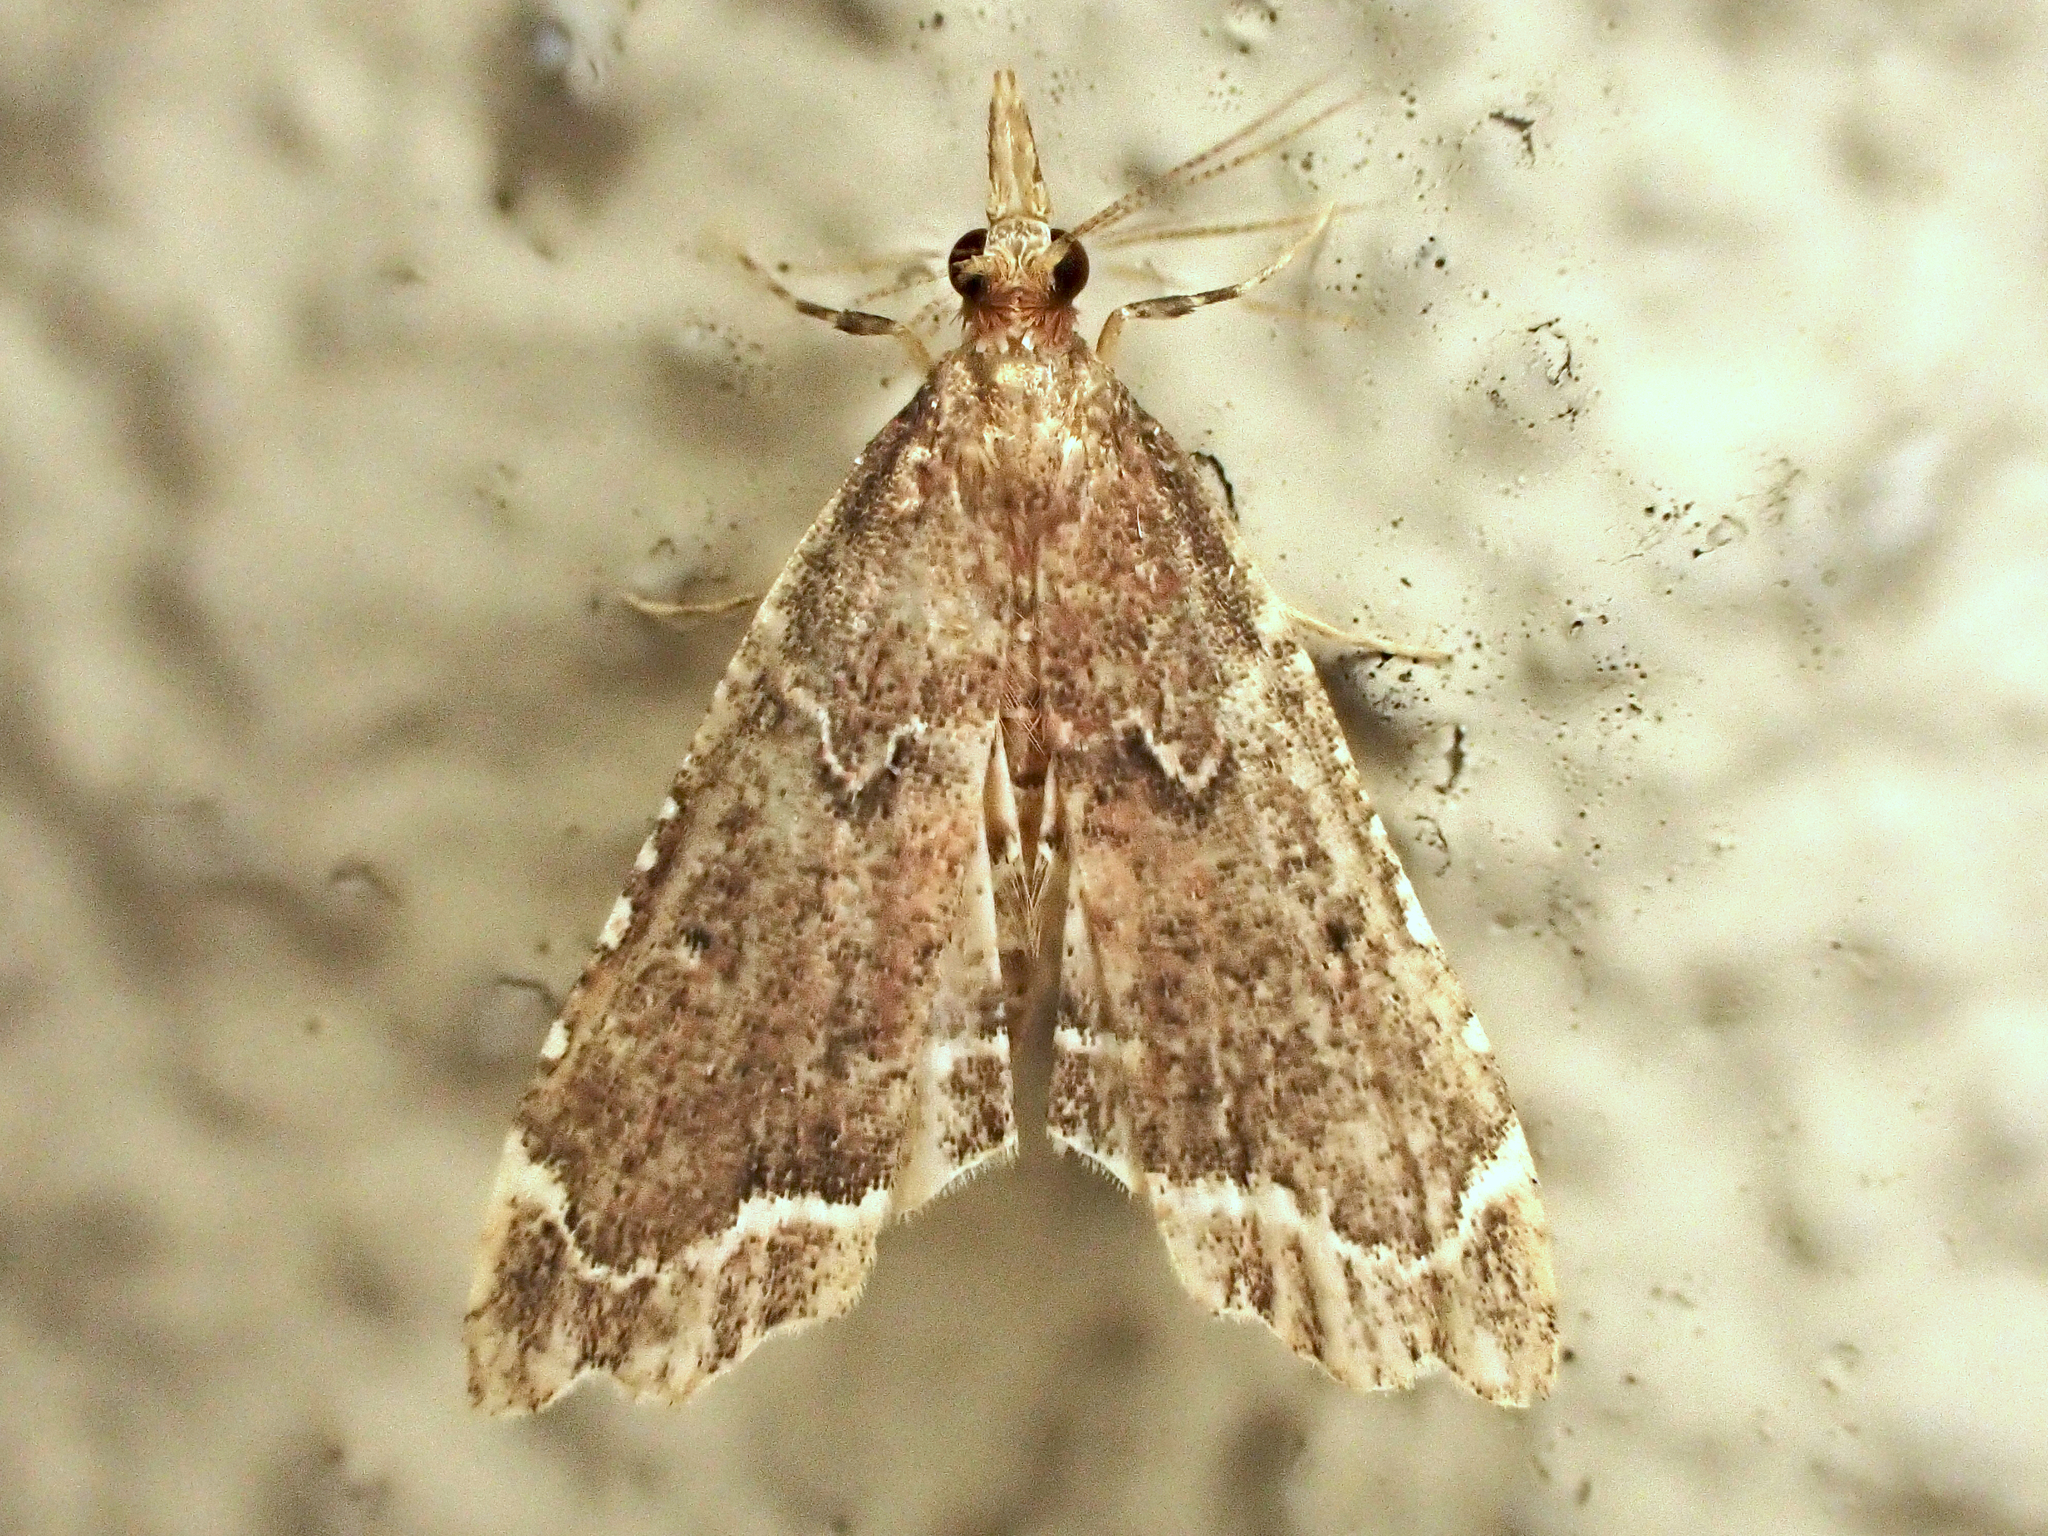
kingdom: Animalia
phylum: Arthropoda
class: Insecta
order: Lepidoptera
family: Crambidae
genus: Diplopseustis
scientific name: Diplopseustis perieresalis
